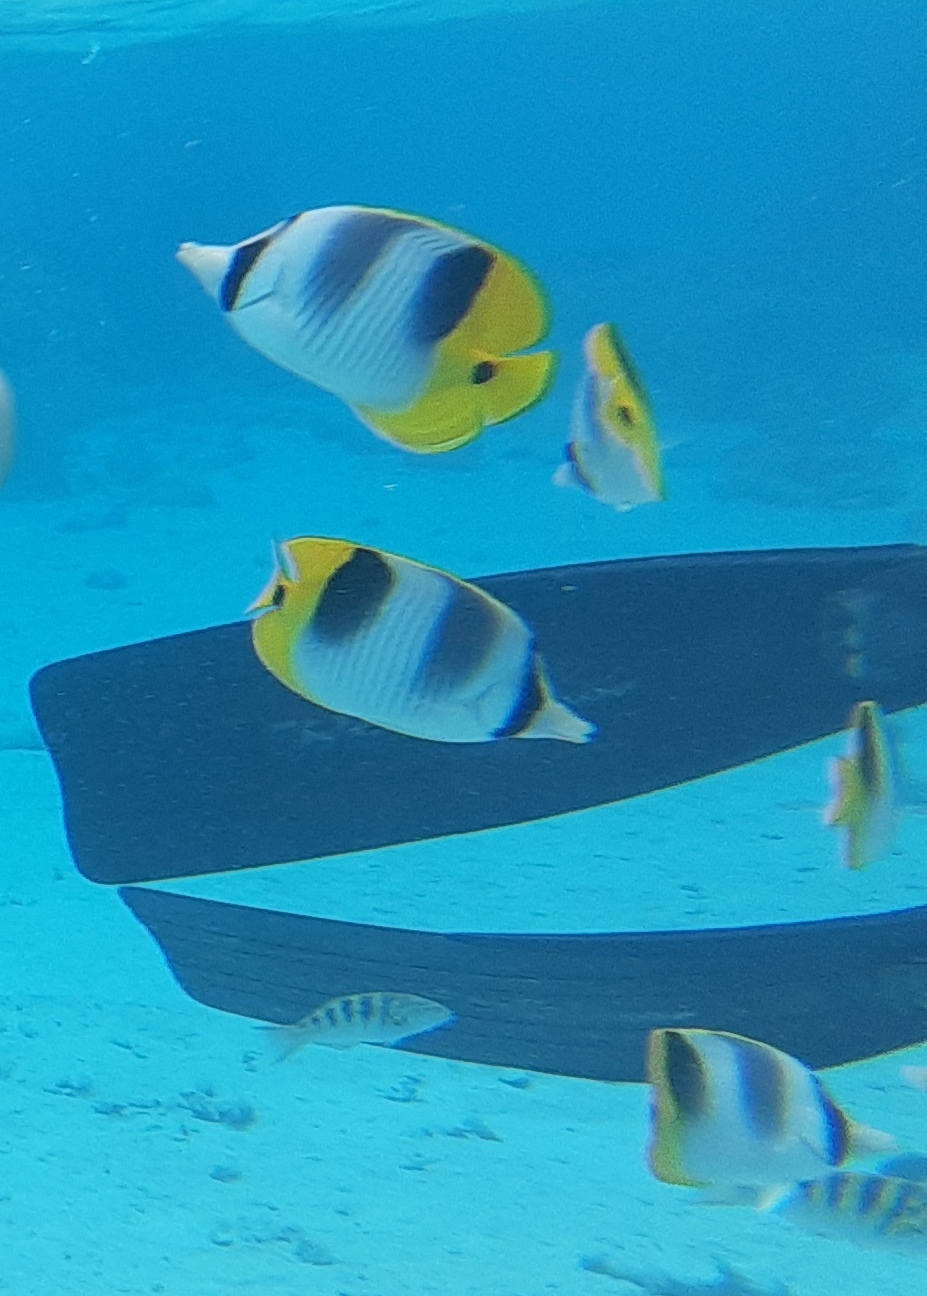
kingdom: Animalia
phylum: Chordata
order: Perciformes
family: Chaetodontidae
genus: Chaetodon
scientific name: Chaetodon ulietensis
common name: Pacific double-saddle butterflyfish
